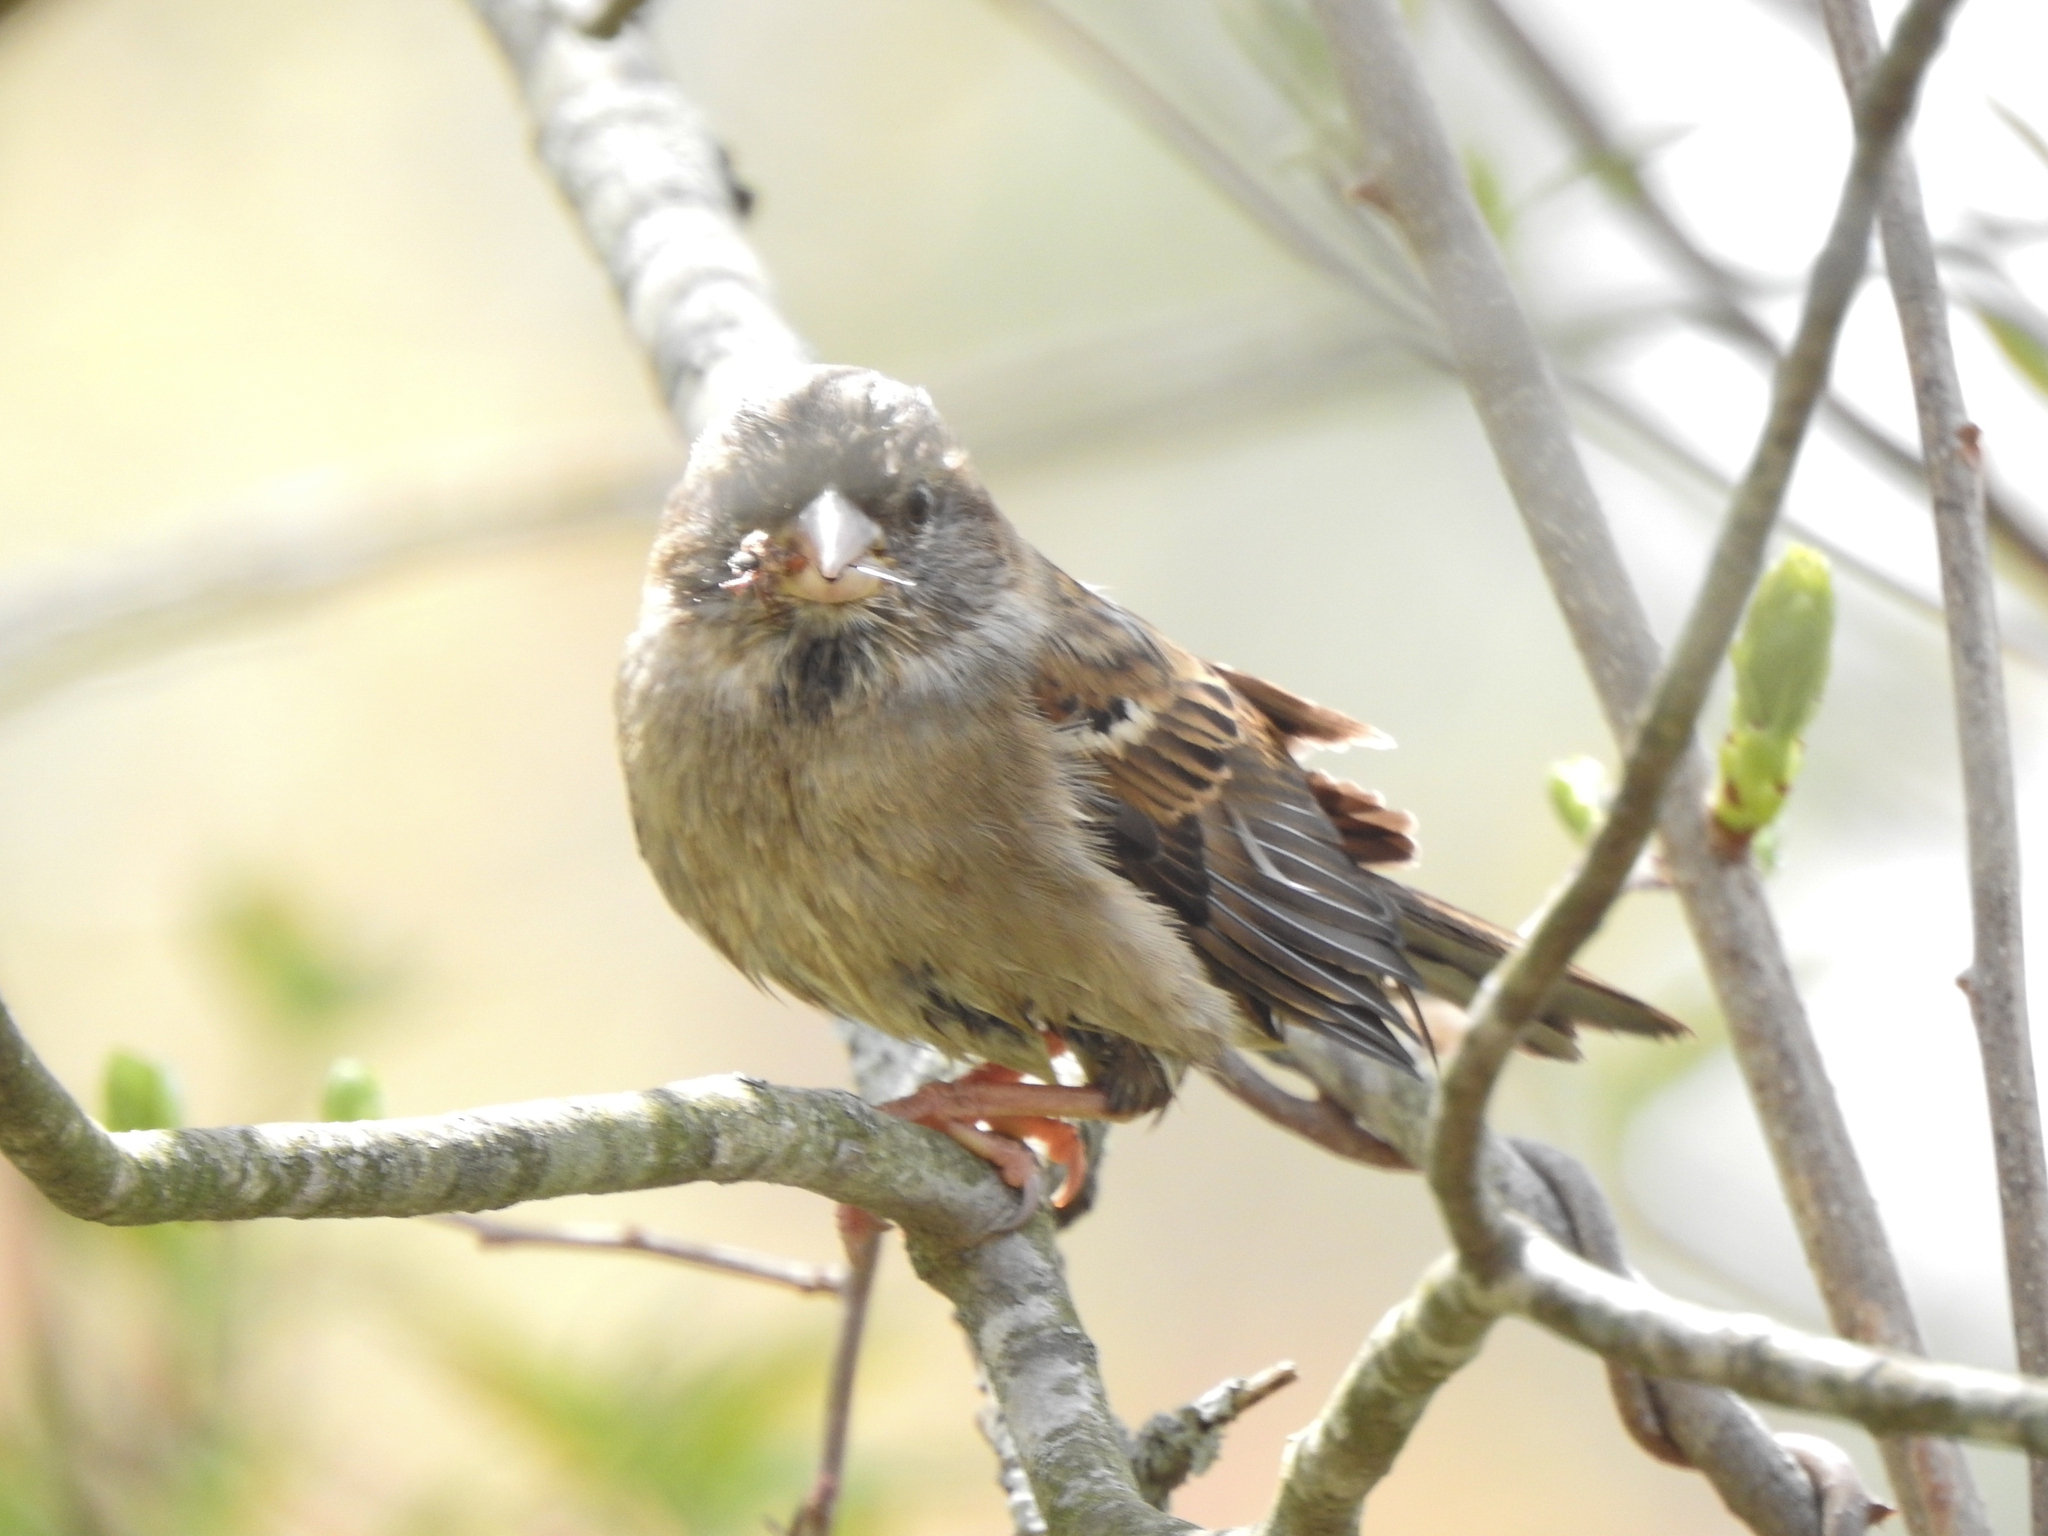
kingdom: Animalia
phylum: Chordata
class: Aves
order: Passeriformes
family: Passeridae
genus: Passer
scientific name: Passer domesticus
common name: House sparrow
